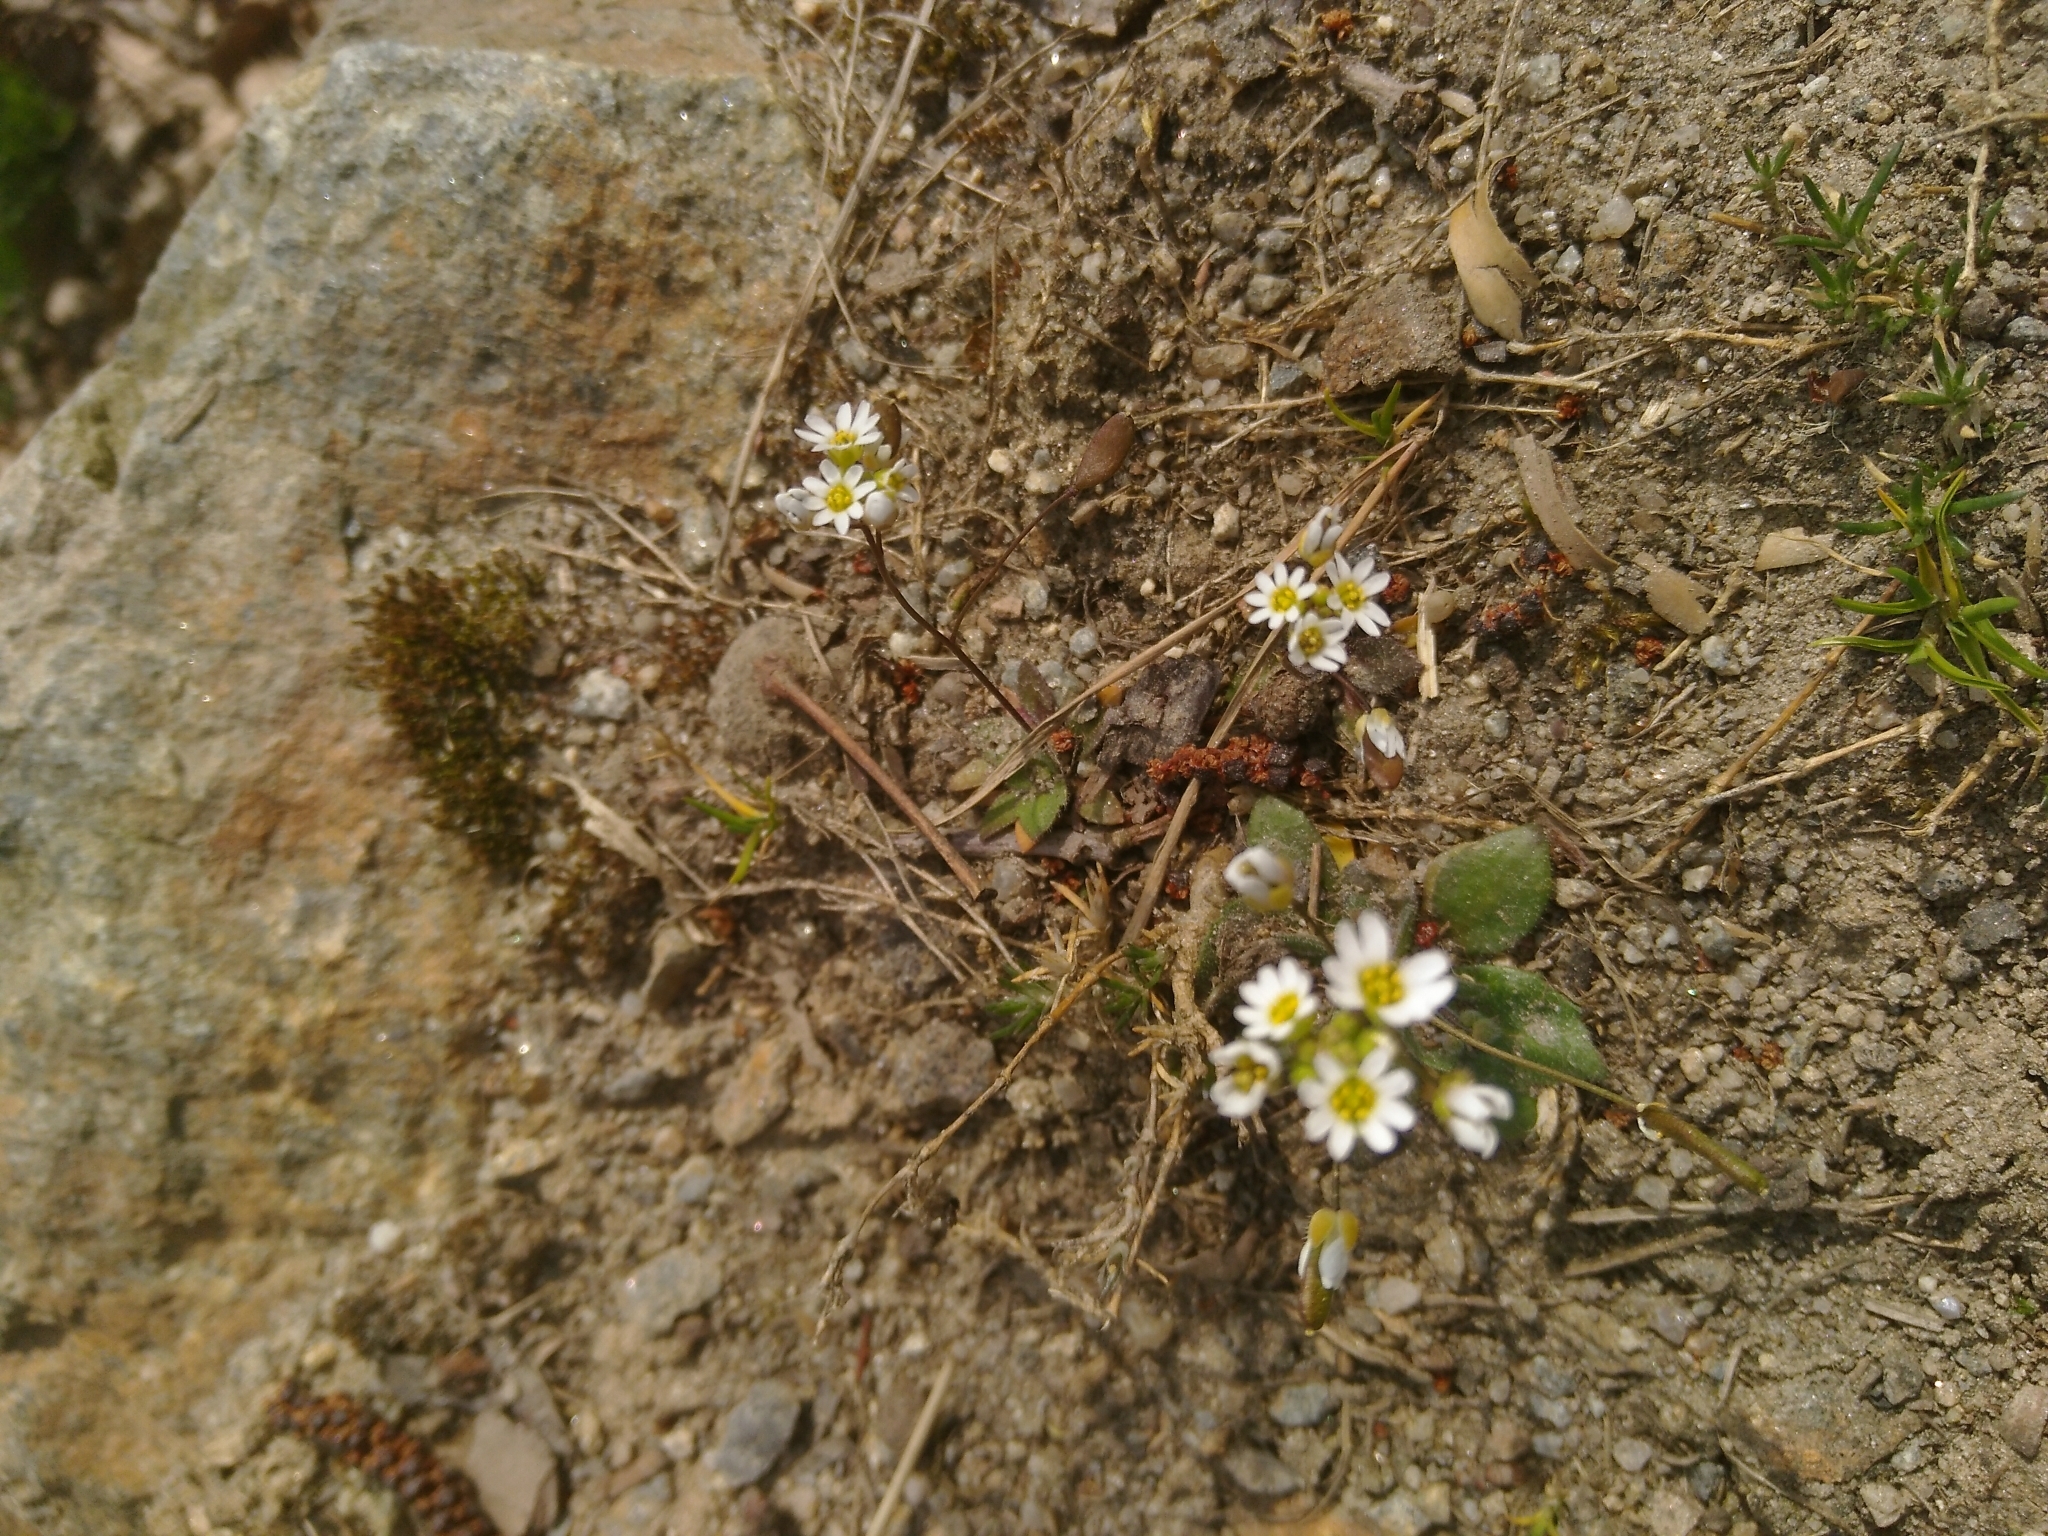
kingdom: Plantae
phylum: Tracheophyta
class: Magnoliopsida
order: Brassicales
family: Brassicaceae
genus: Draba
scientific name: Draba verna
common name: Spring draba
